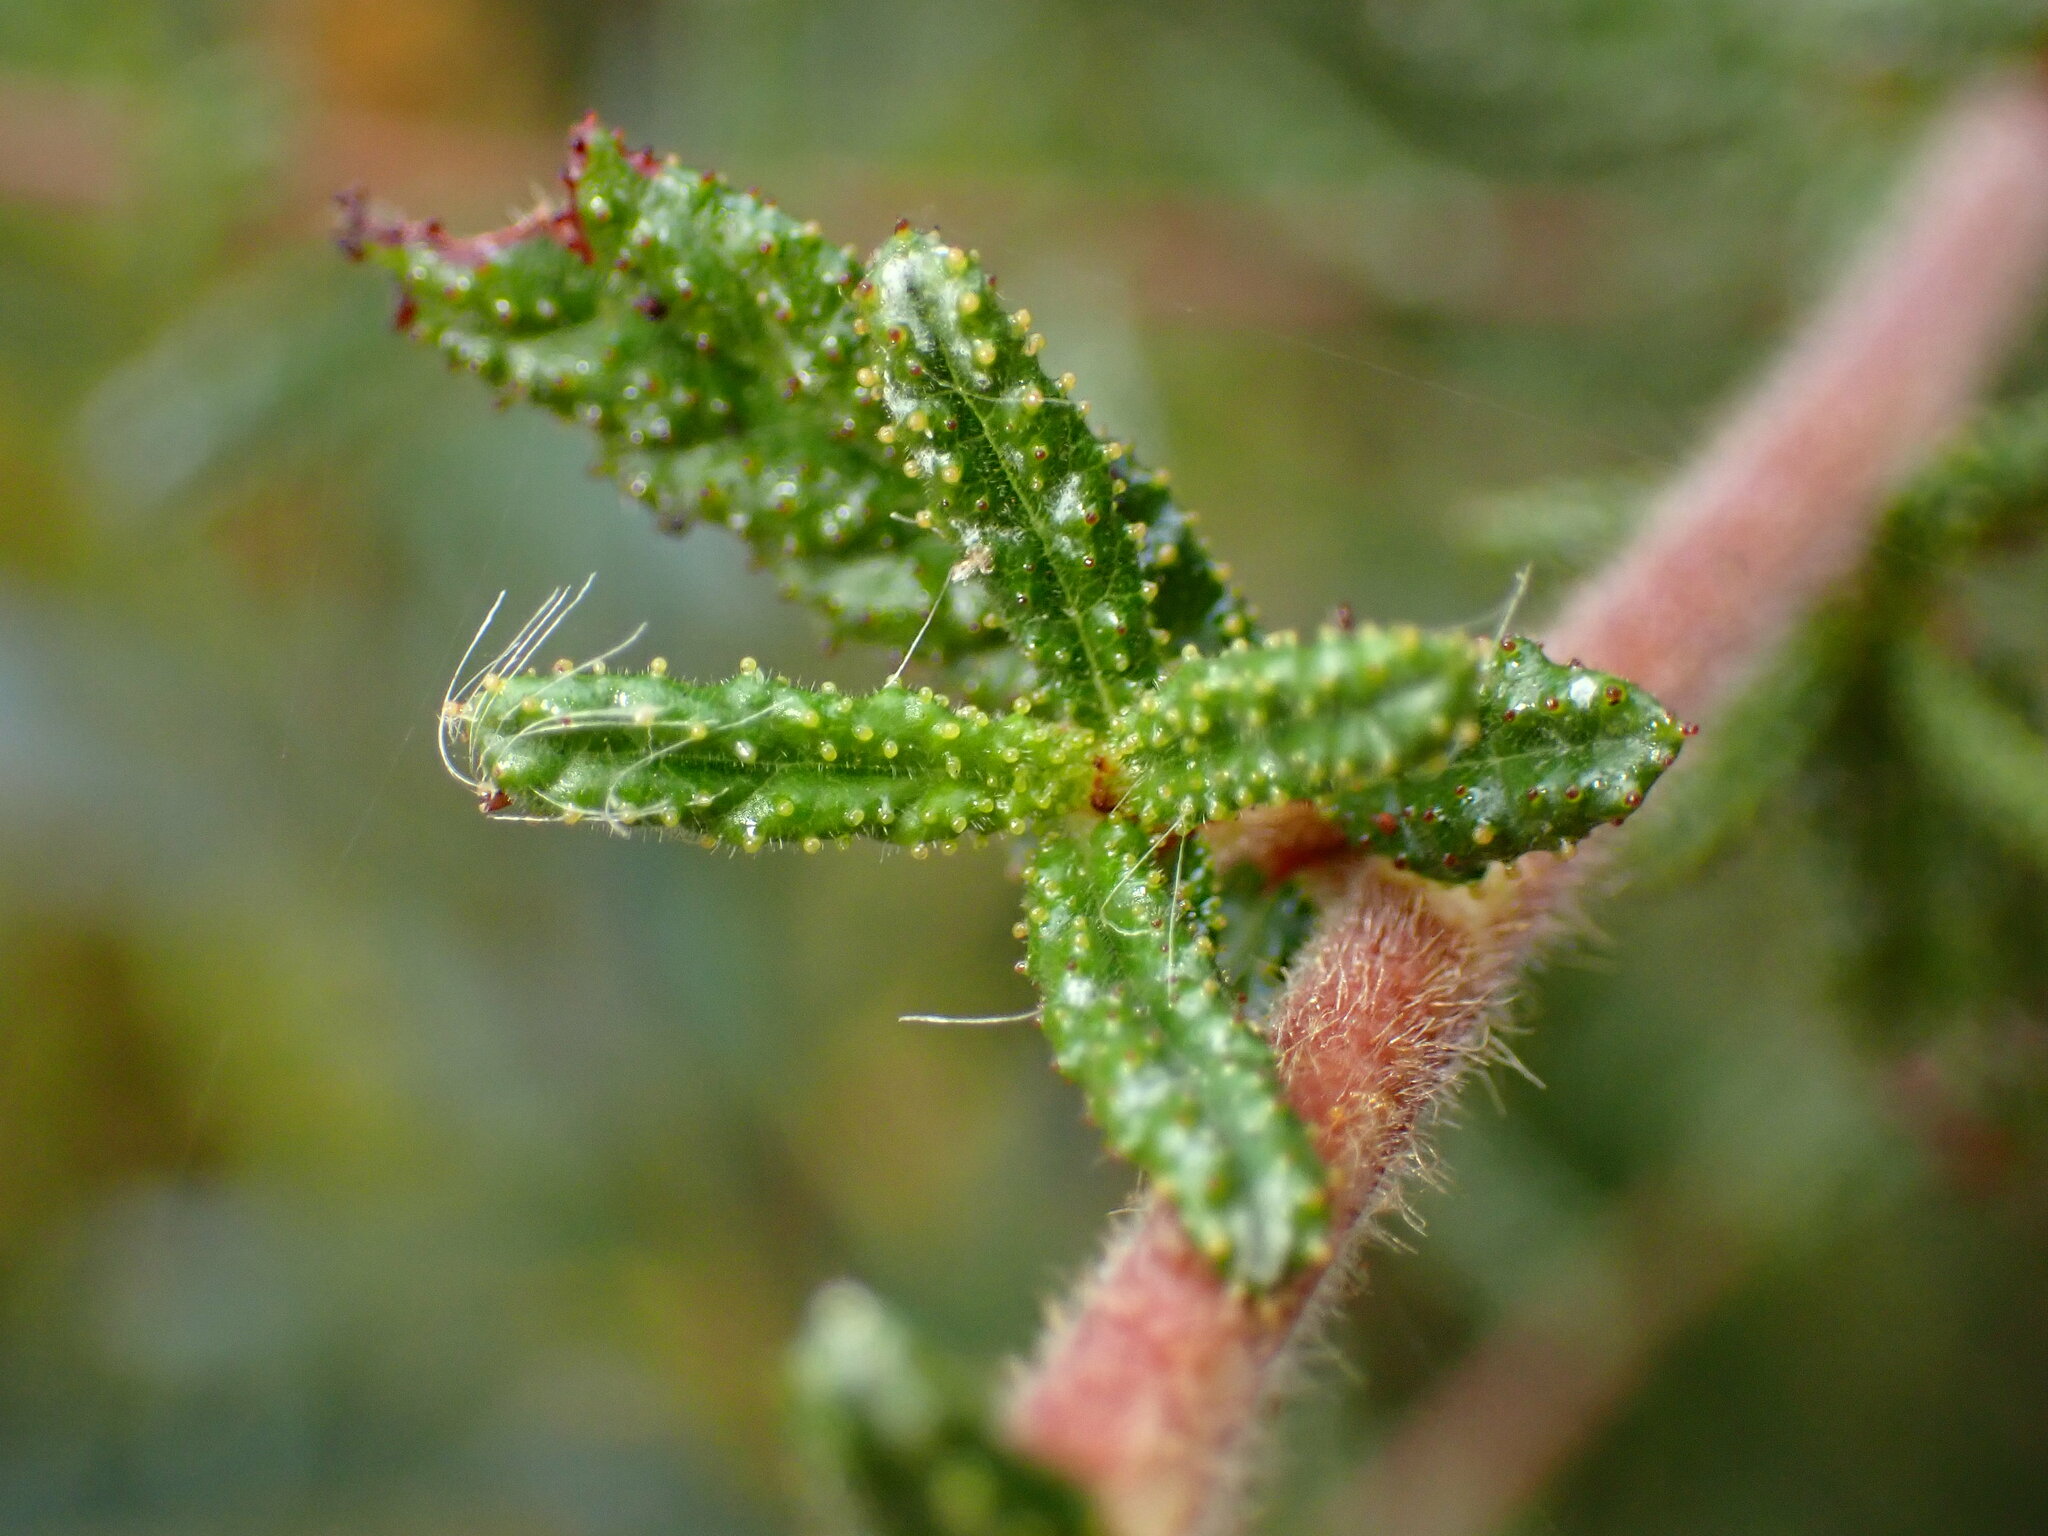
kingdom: Plantae
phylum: Tracheophyta
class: Magnoliopsida
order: Rosales
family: Rhamnaceae
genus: Ceanothus
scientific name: Ceanothus papillosus
